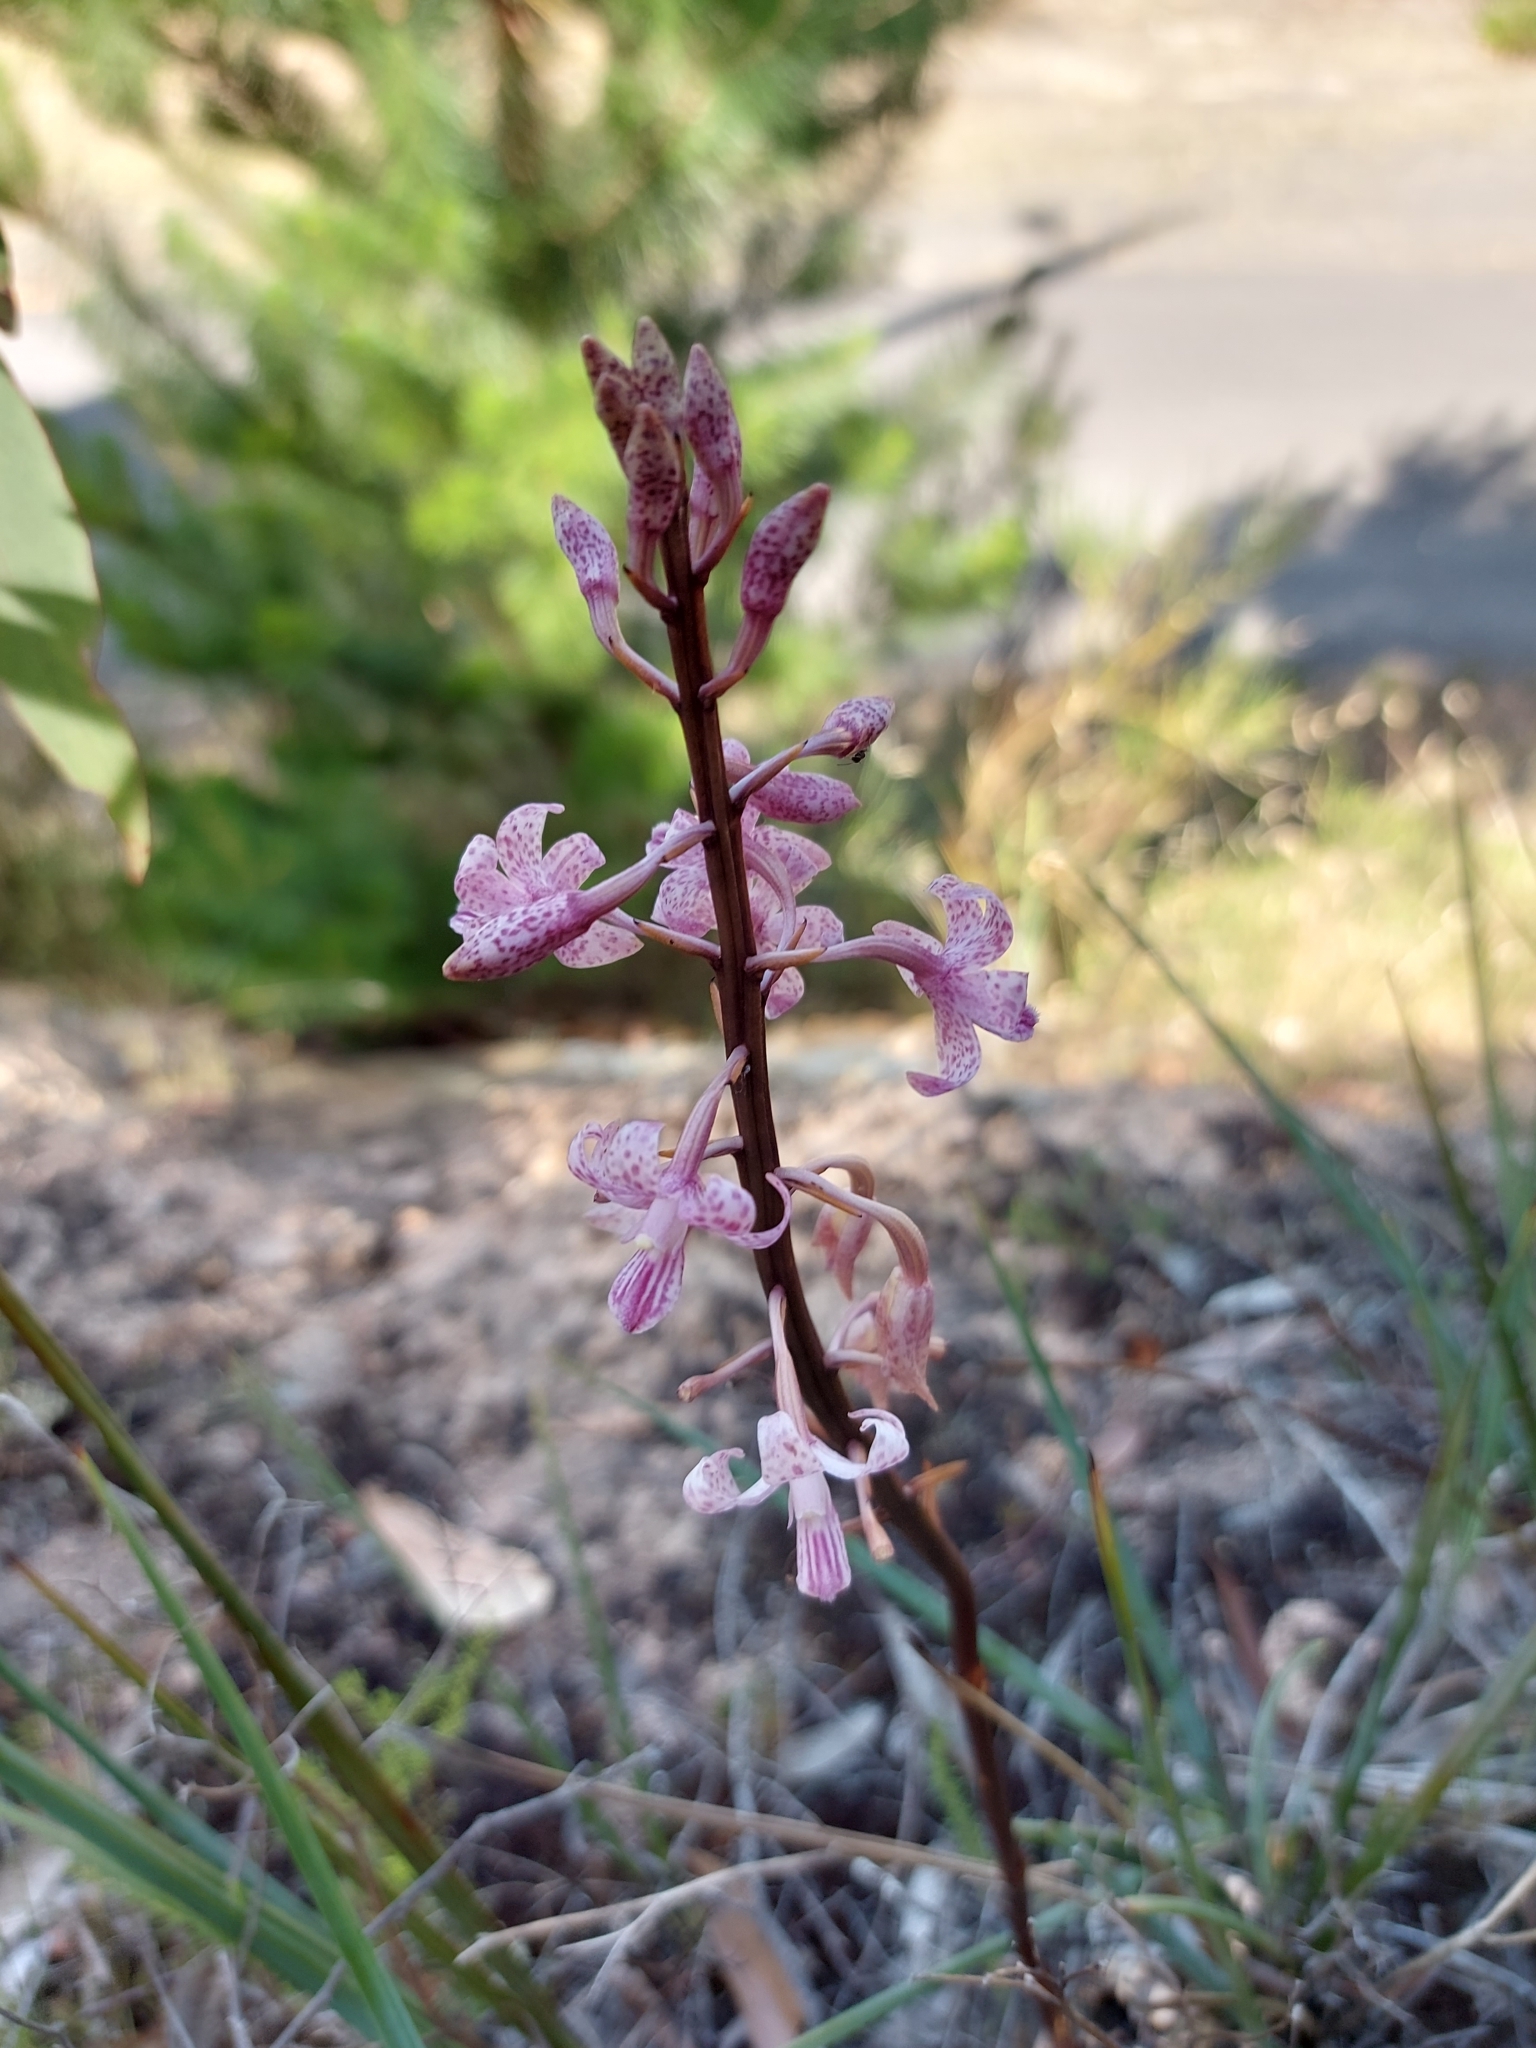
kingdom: Plantae
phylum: Tracheophyta
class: Liliopsida
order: Asparagales
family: Orchidaceae
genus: Dipodium
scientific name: Dipodium roseum
